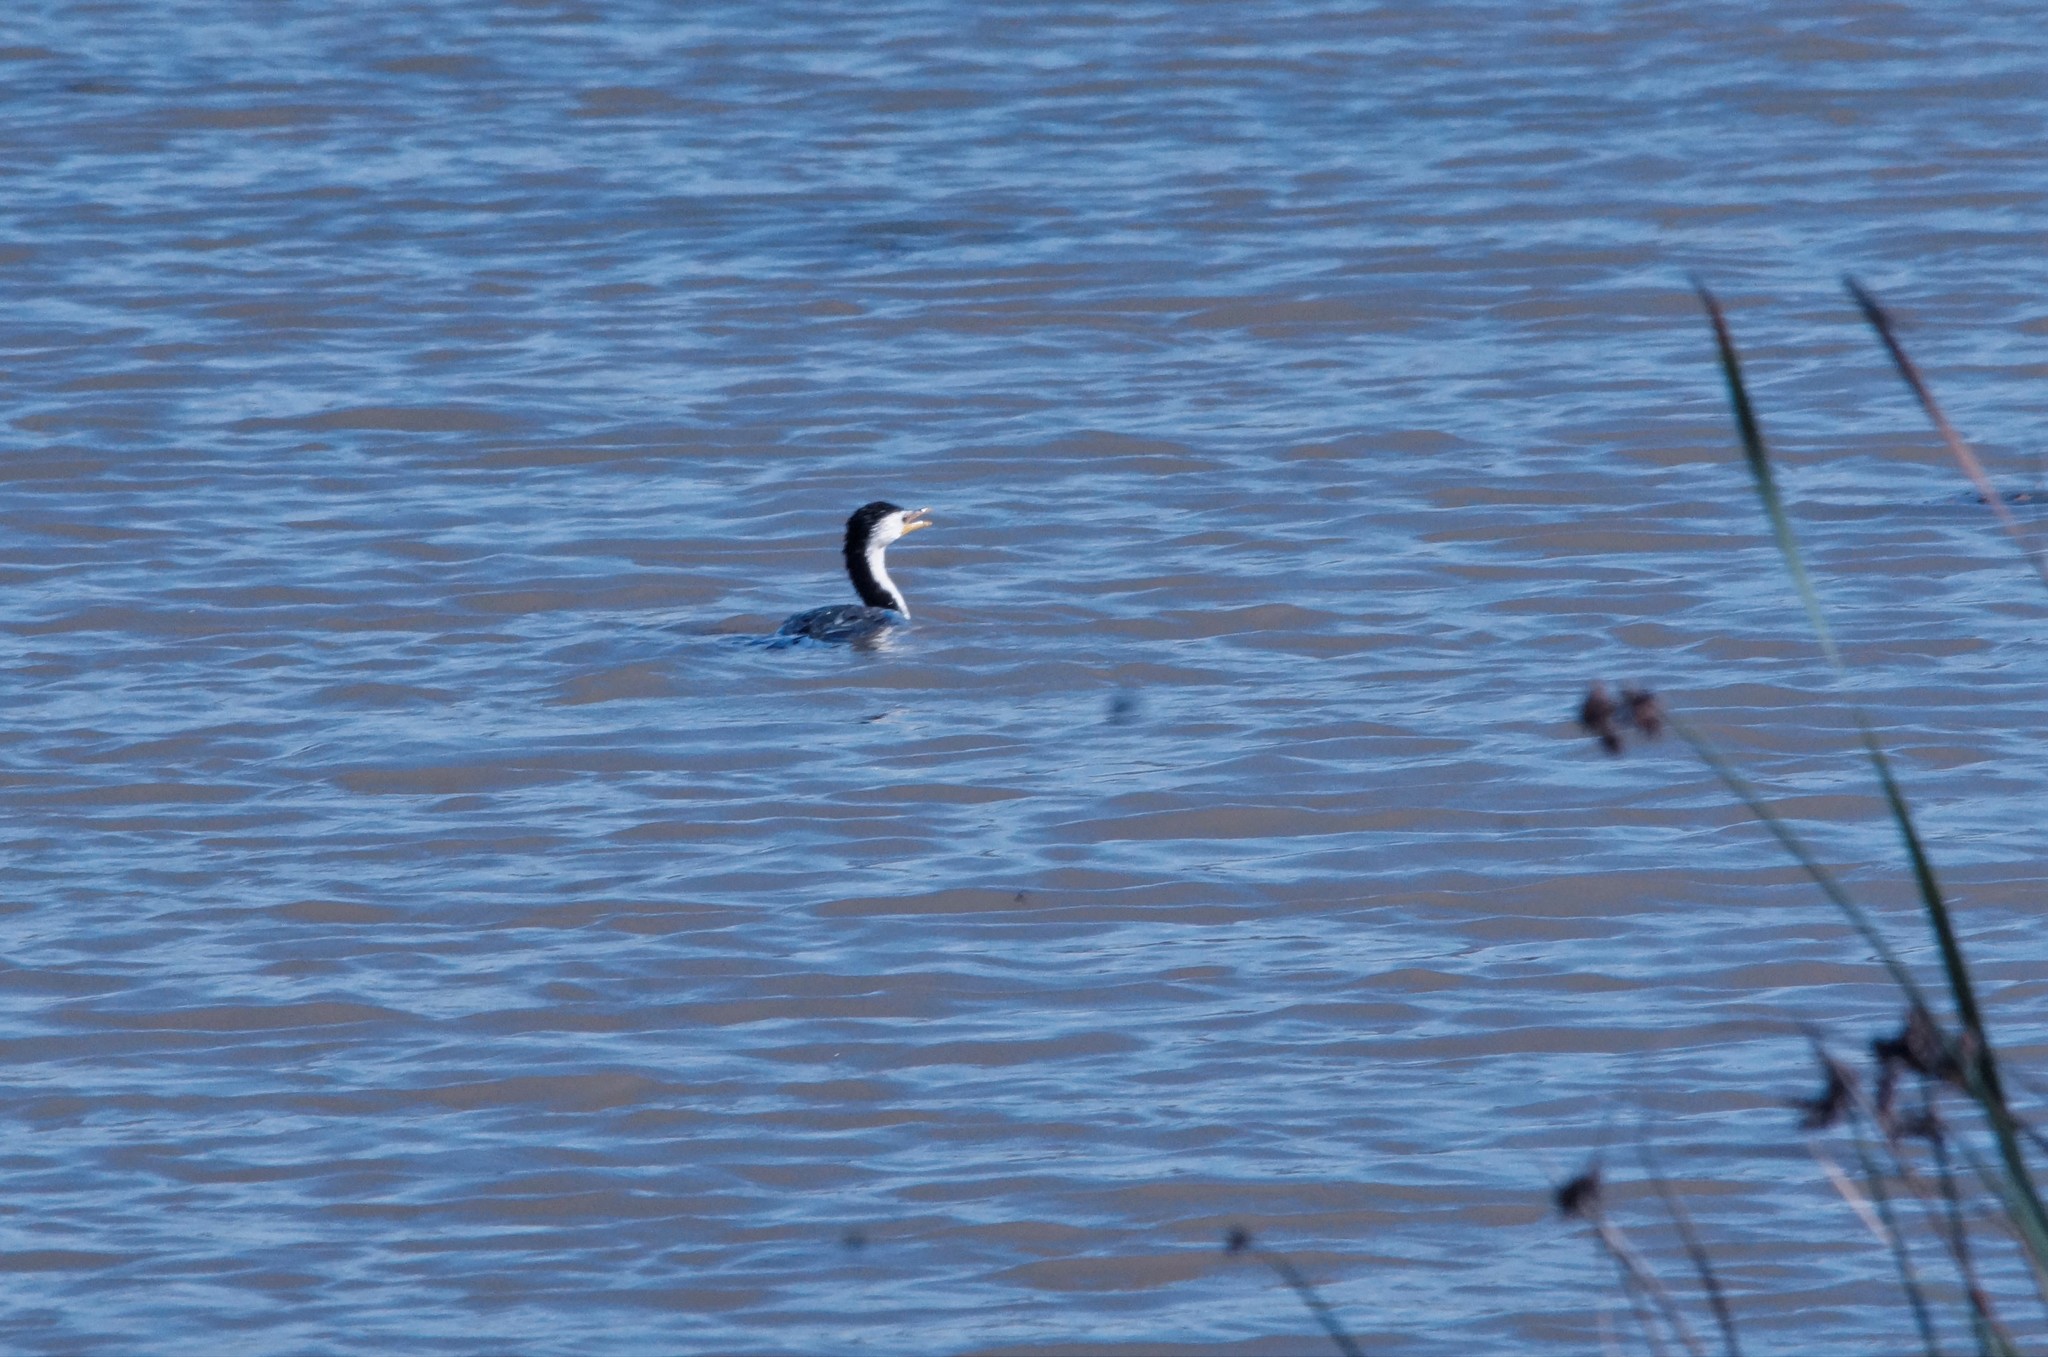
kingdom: Animalia
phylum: Chordata
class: Aves
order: Suliformes
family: Phalacrocoracidae
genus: Microcarbo
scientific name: Microcarbo melanoleucos
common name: Little pied cormorant
